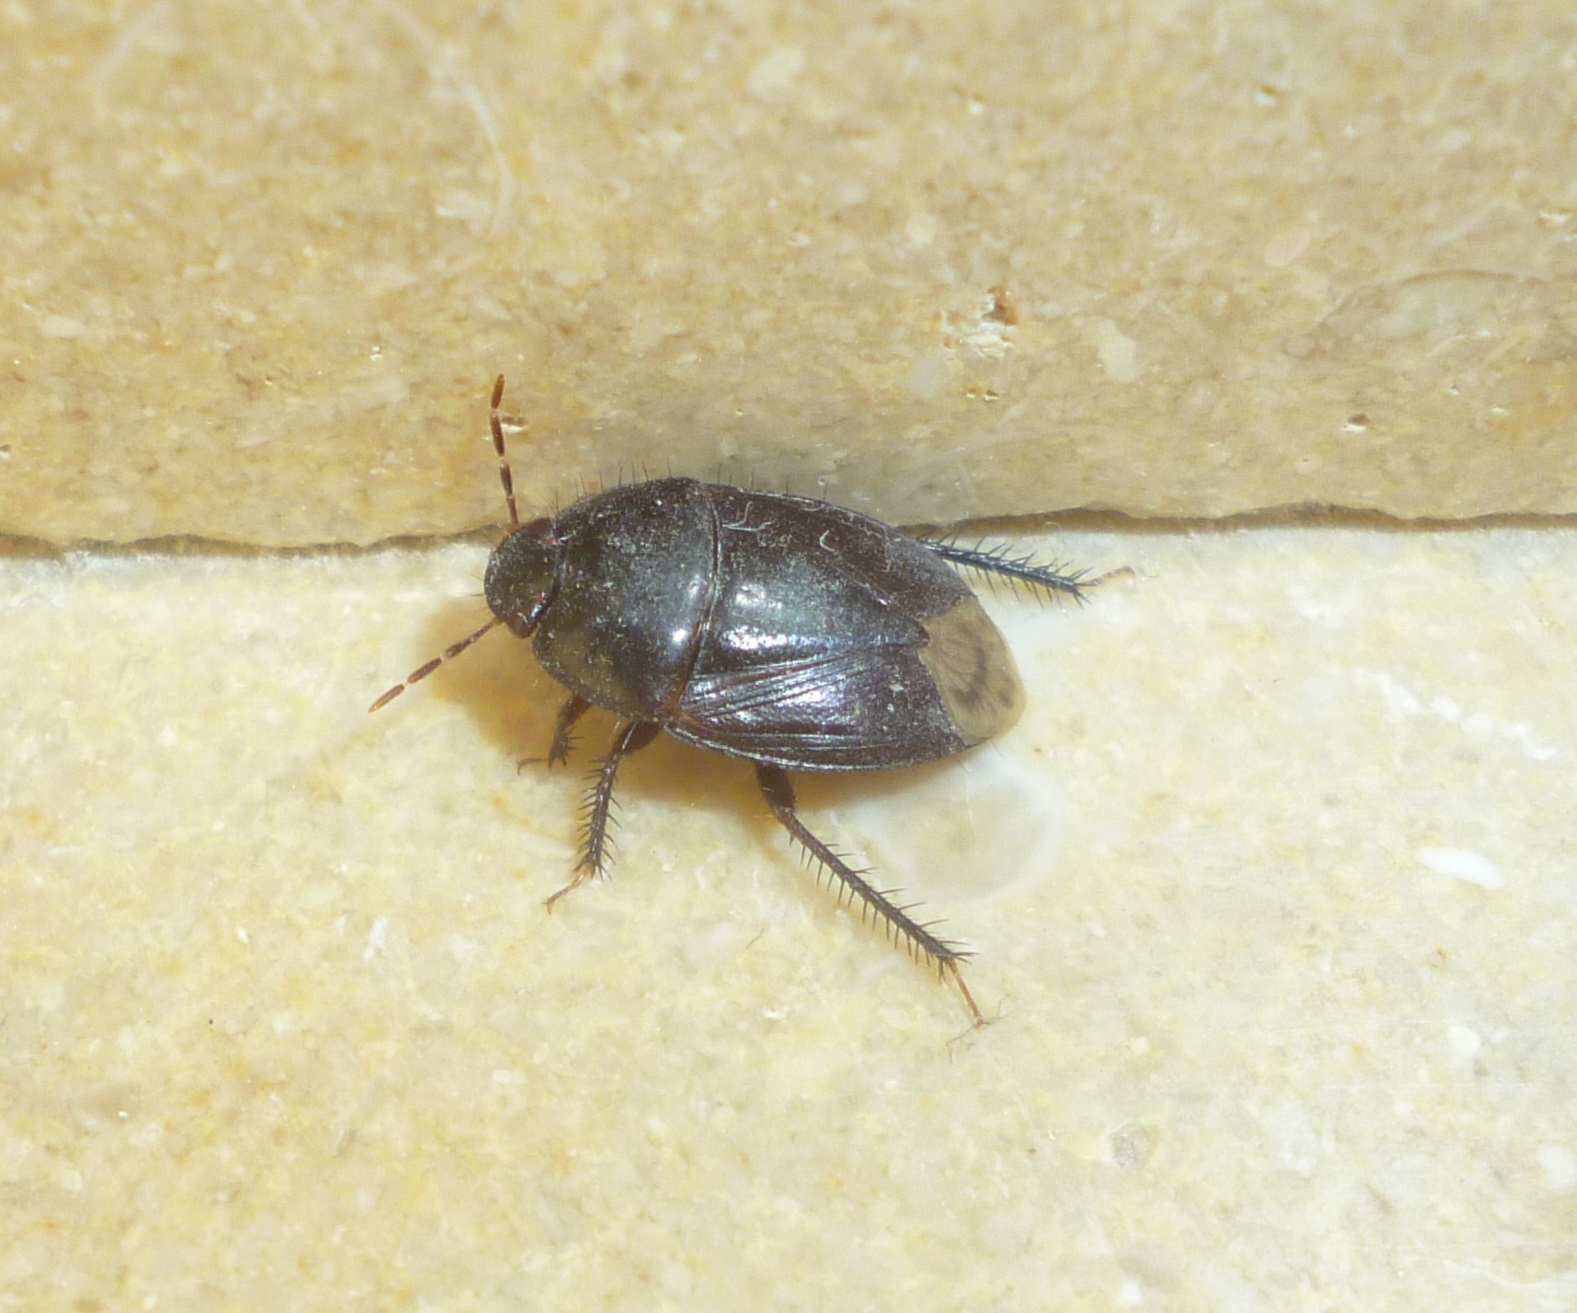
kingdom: Animalia
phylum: Arthropoda
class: Insecta
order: Hemiptera
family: Cydnidae
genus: Macroscytus
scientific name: Macroscytus brunneus
